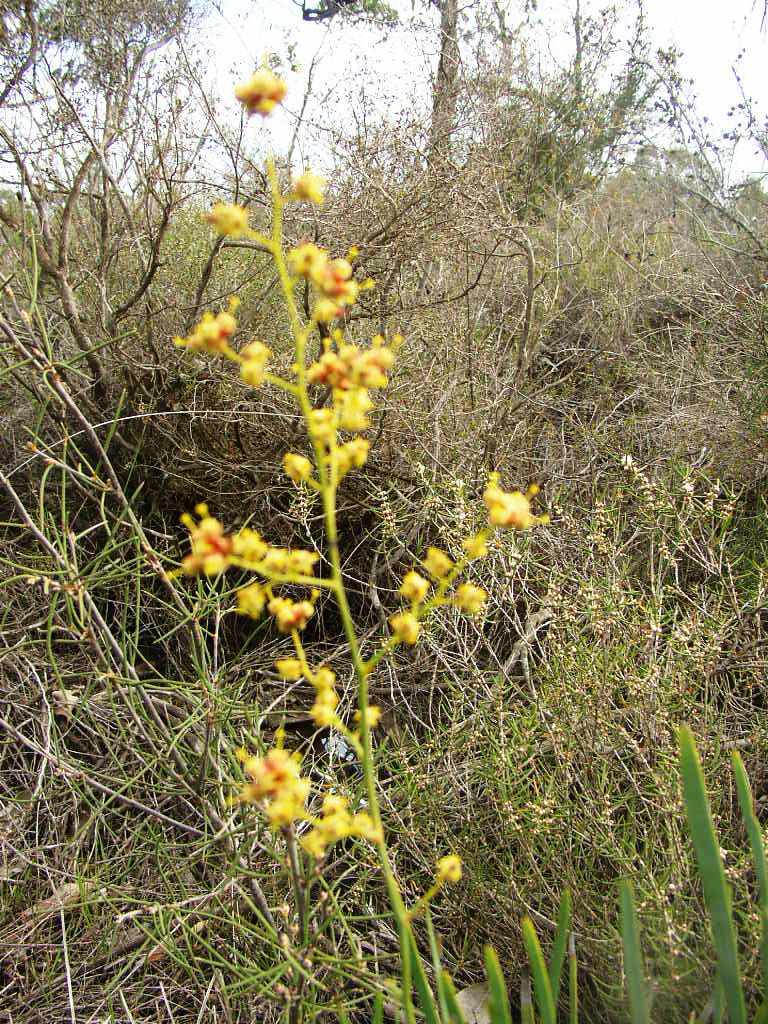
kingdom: Plantae
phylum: Tracheophyta
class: Magnoliopsida
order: Proteales
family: Proteaceae
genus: Stirlingia
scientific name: Stirlingia latifolia
